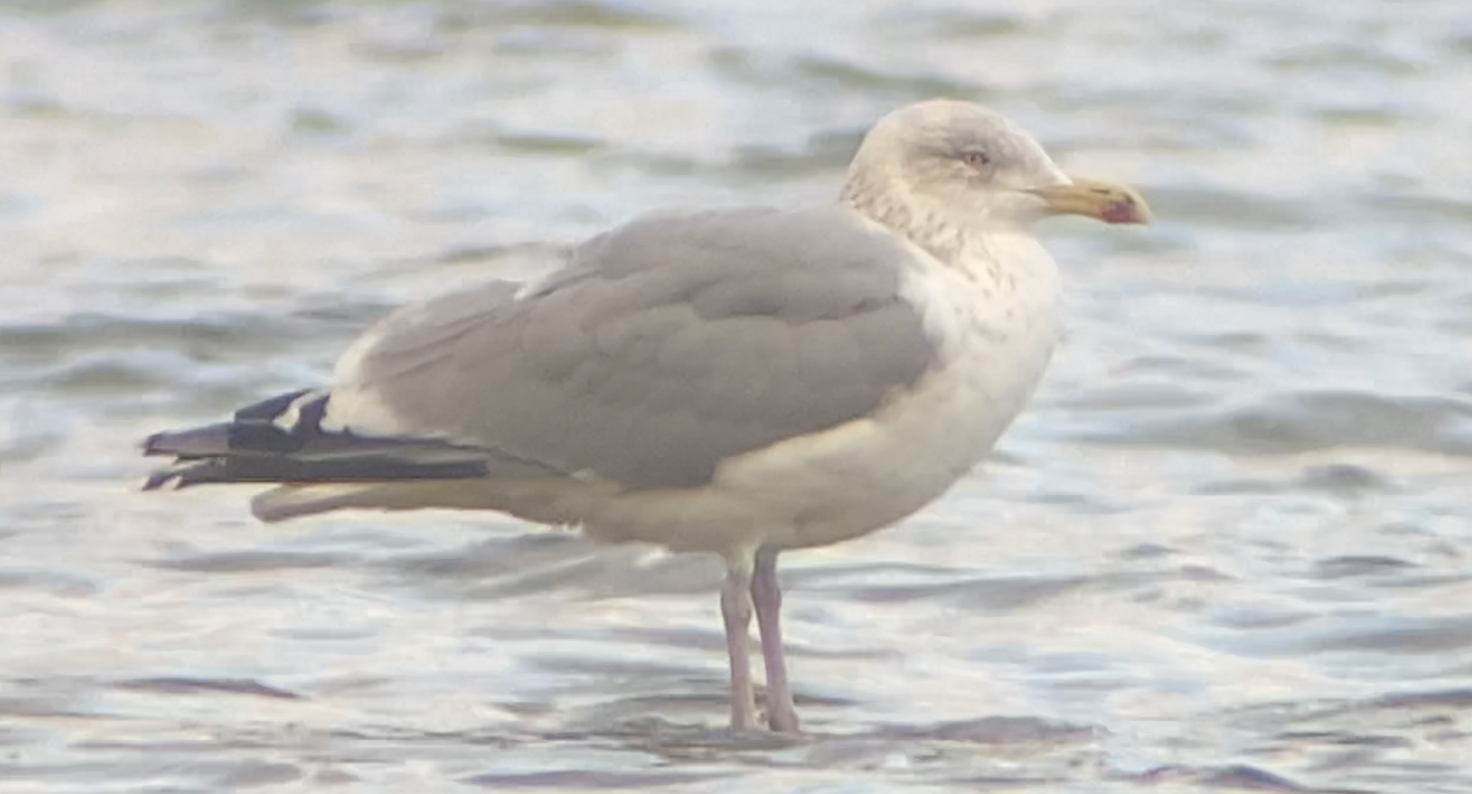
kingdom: Animalia
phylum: Chordata
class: Aves
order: Charadriiformes
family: Laridae
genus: Larus
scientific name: Larus argentatus
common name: Herring gull
